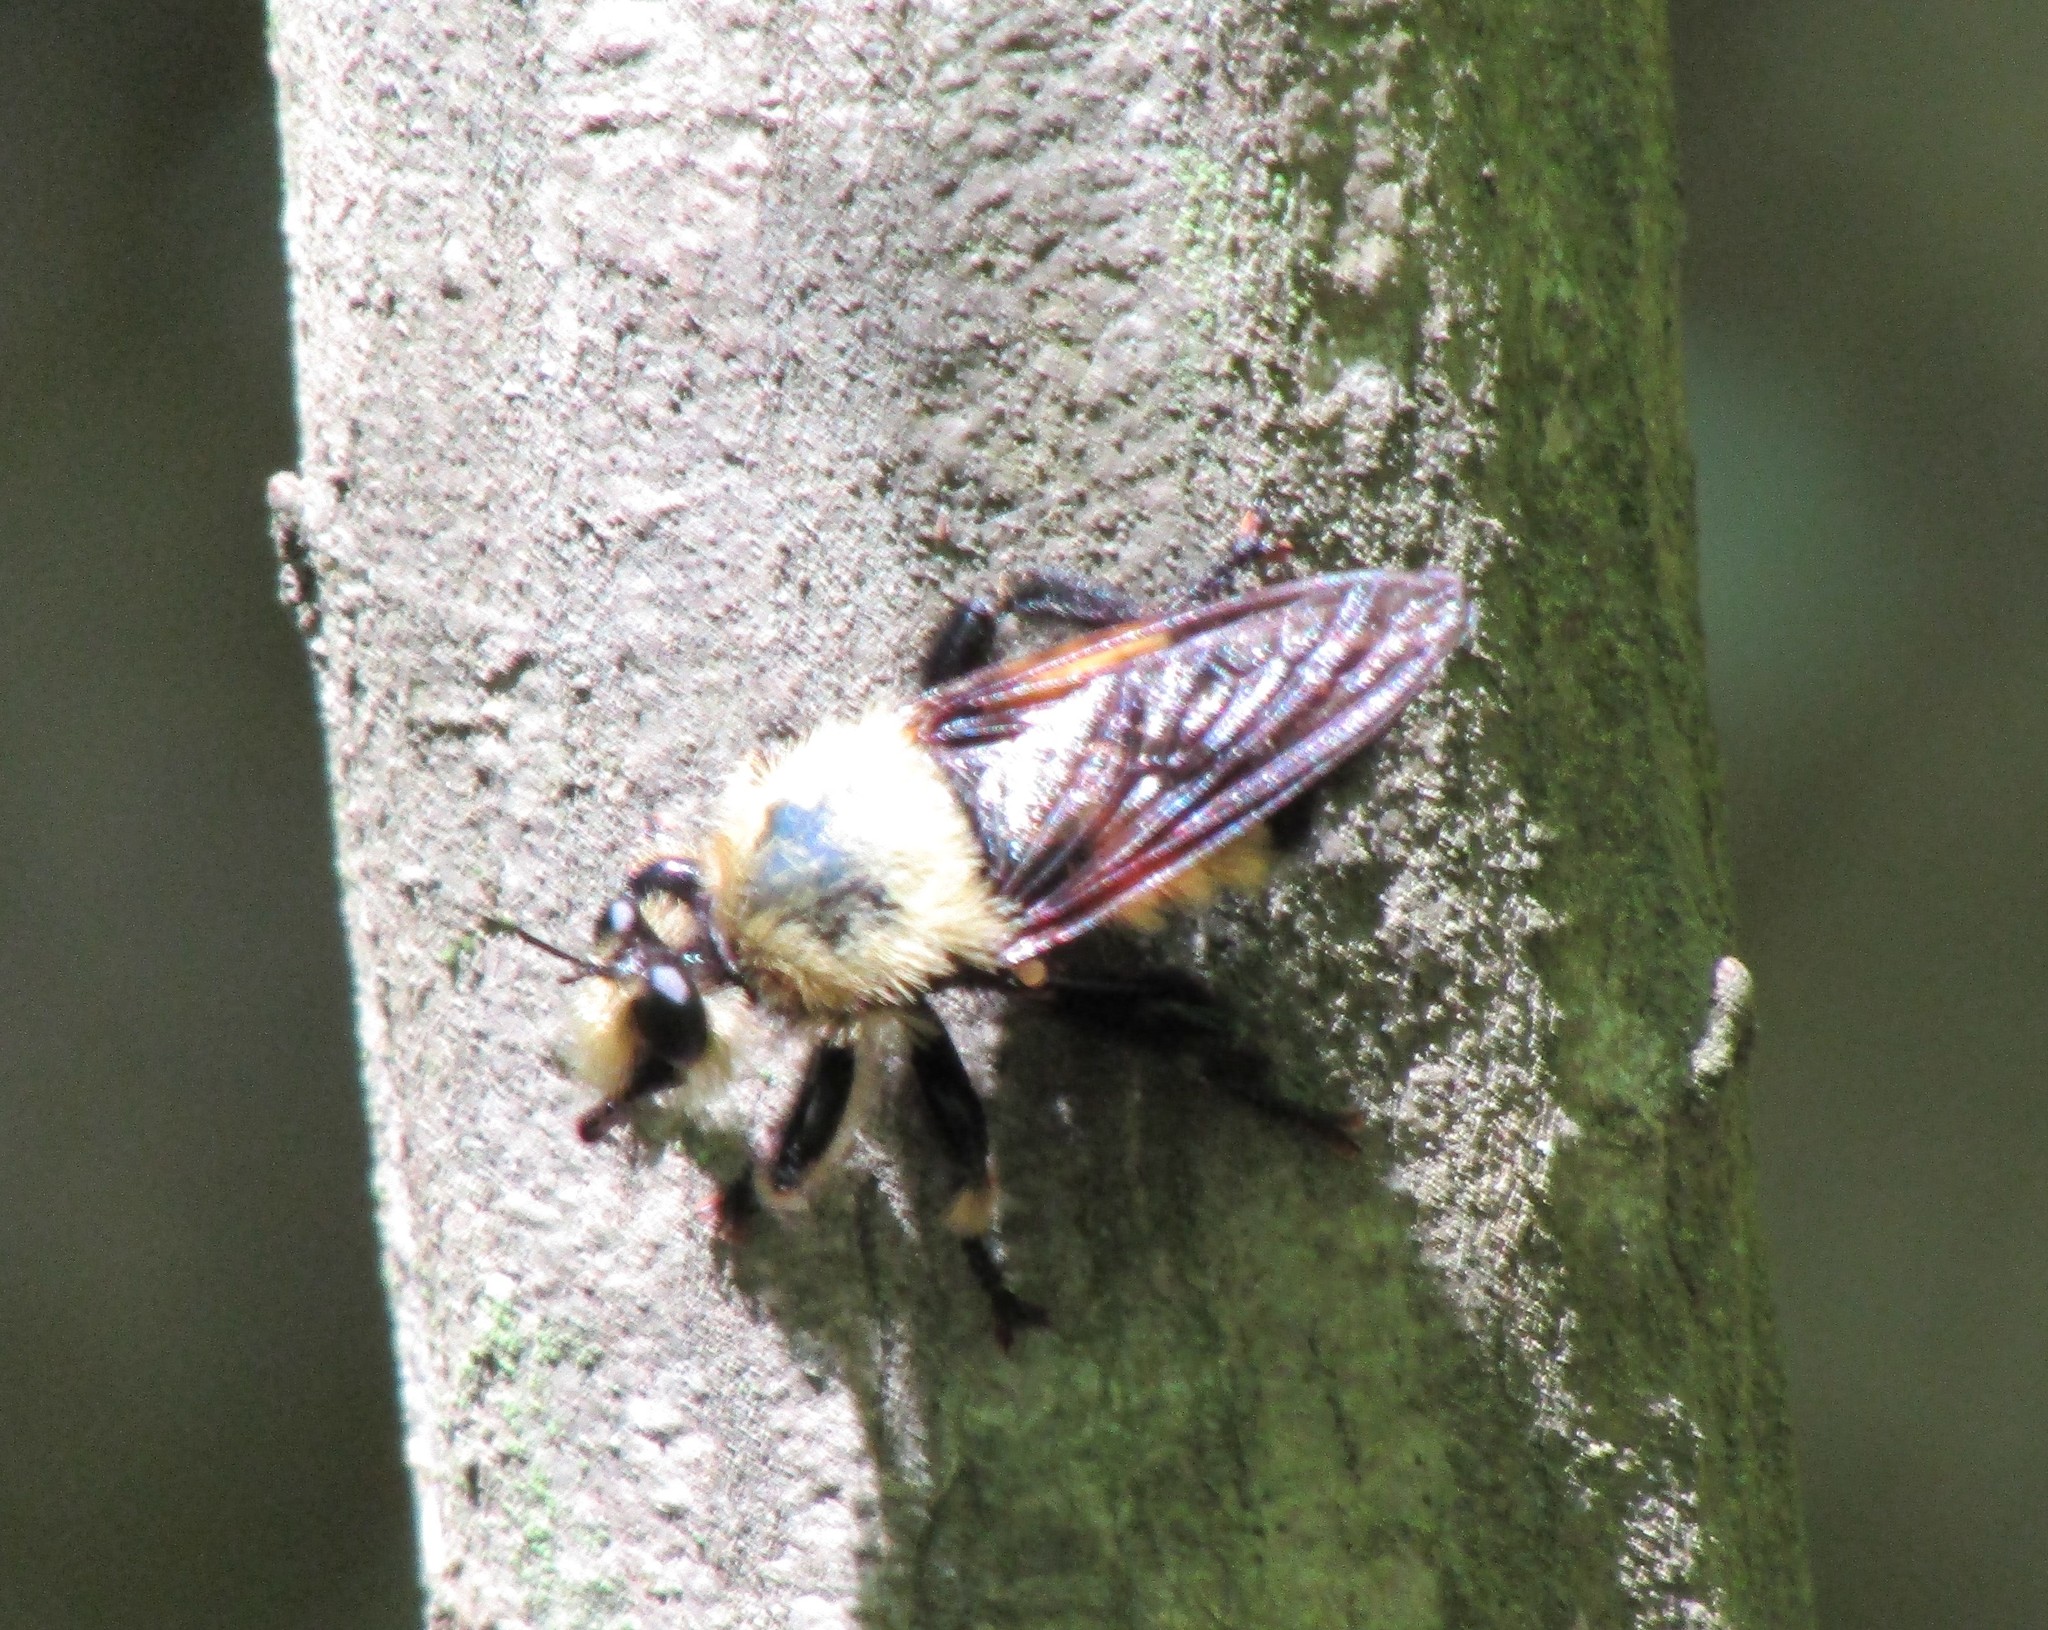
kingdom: Animalia
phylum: Arthropoda
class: Insecta
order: Diptera
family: Asilidae
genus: Laphria
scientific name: Laphria grossa
